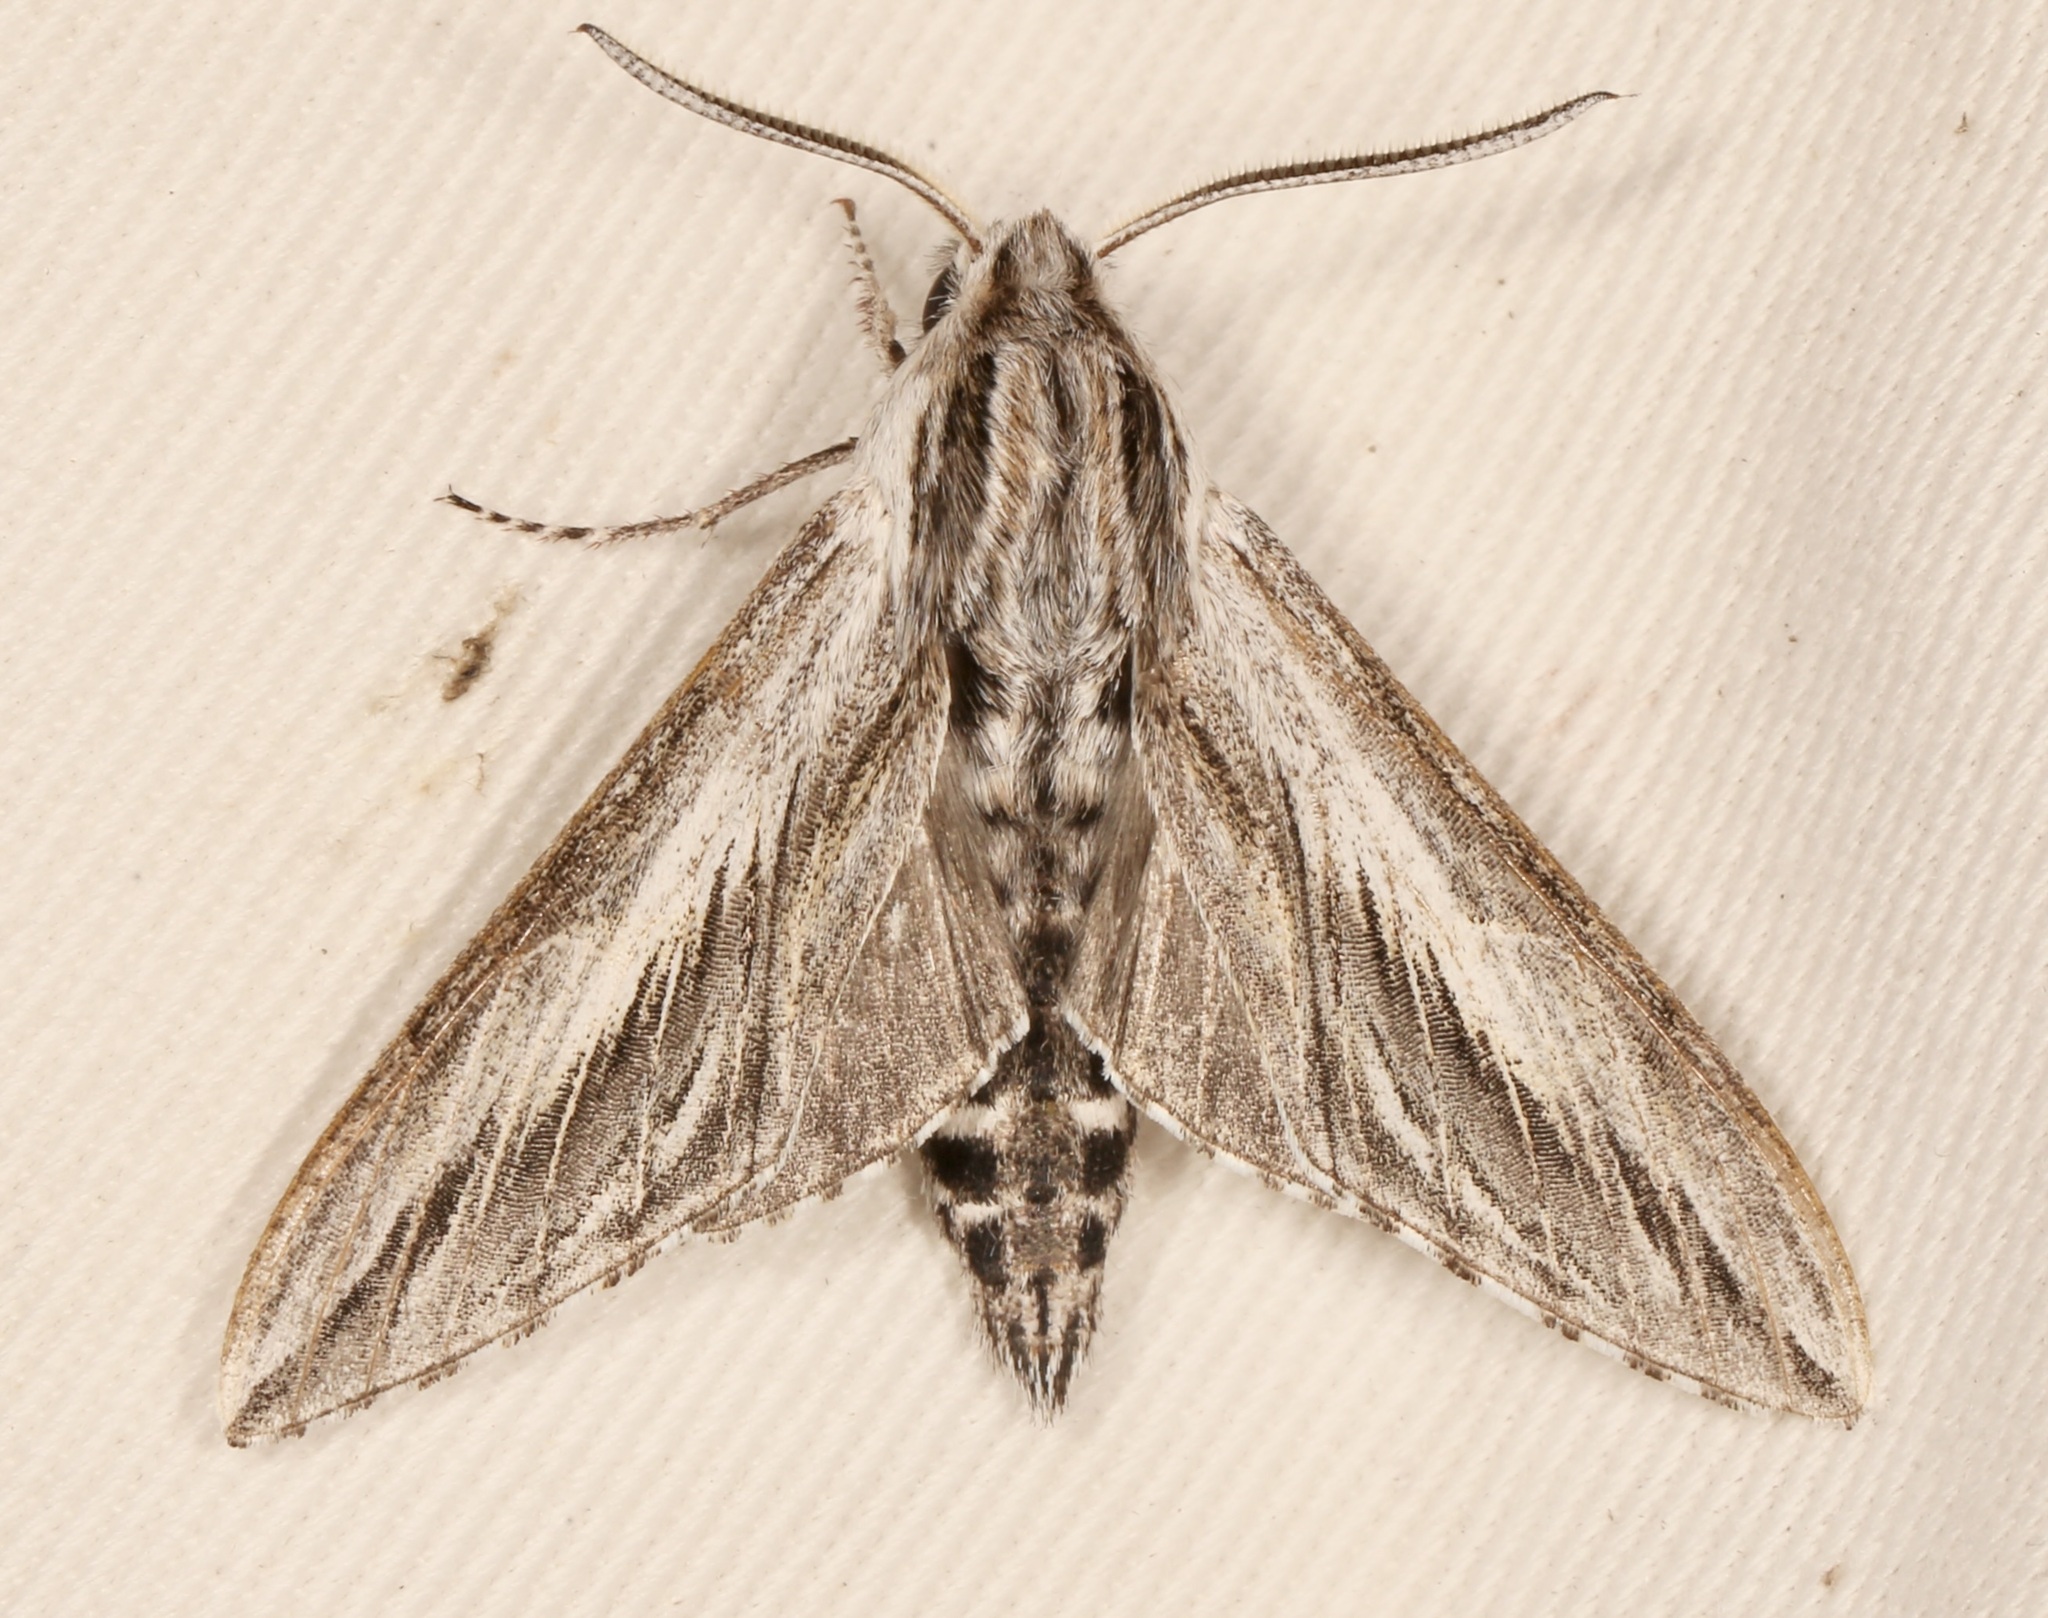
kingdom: Animalia
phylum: Arthropoda
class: Insecta
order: Lepidoptera
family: Sphingidae
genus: Sphinx
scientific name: Sphinx dollii
